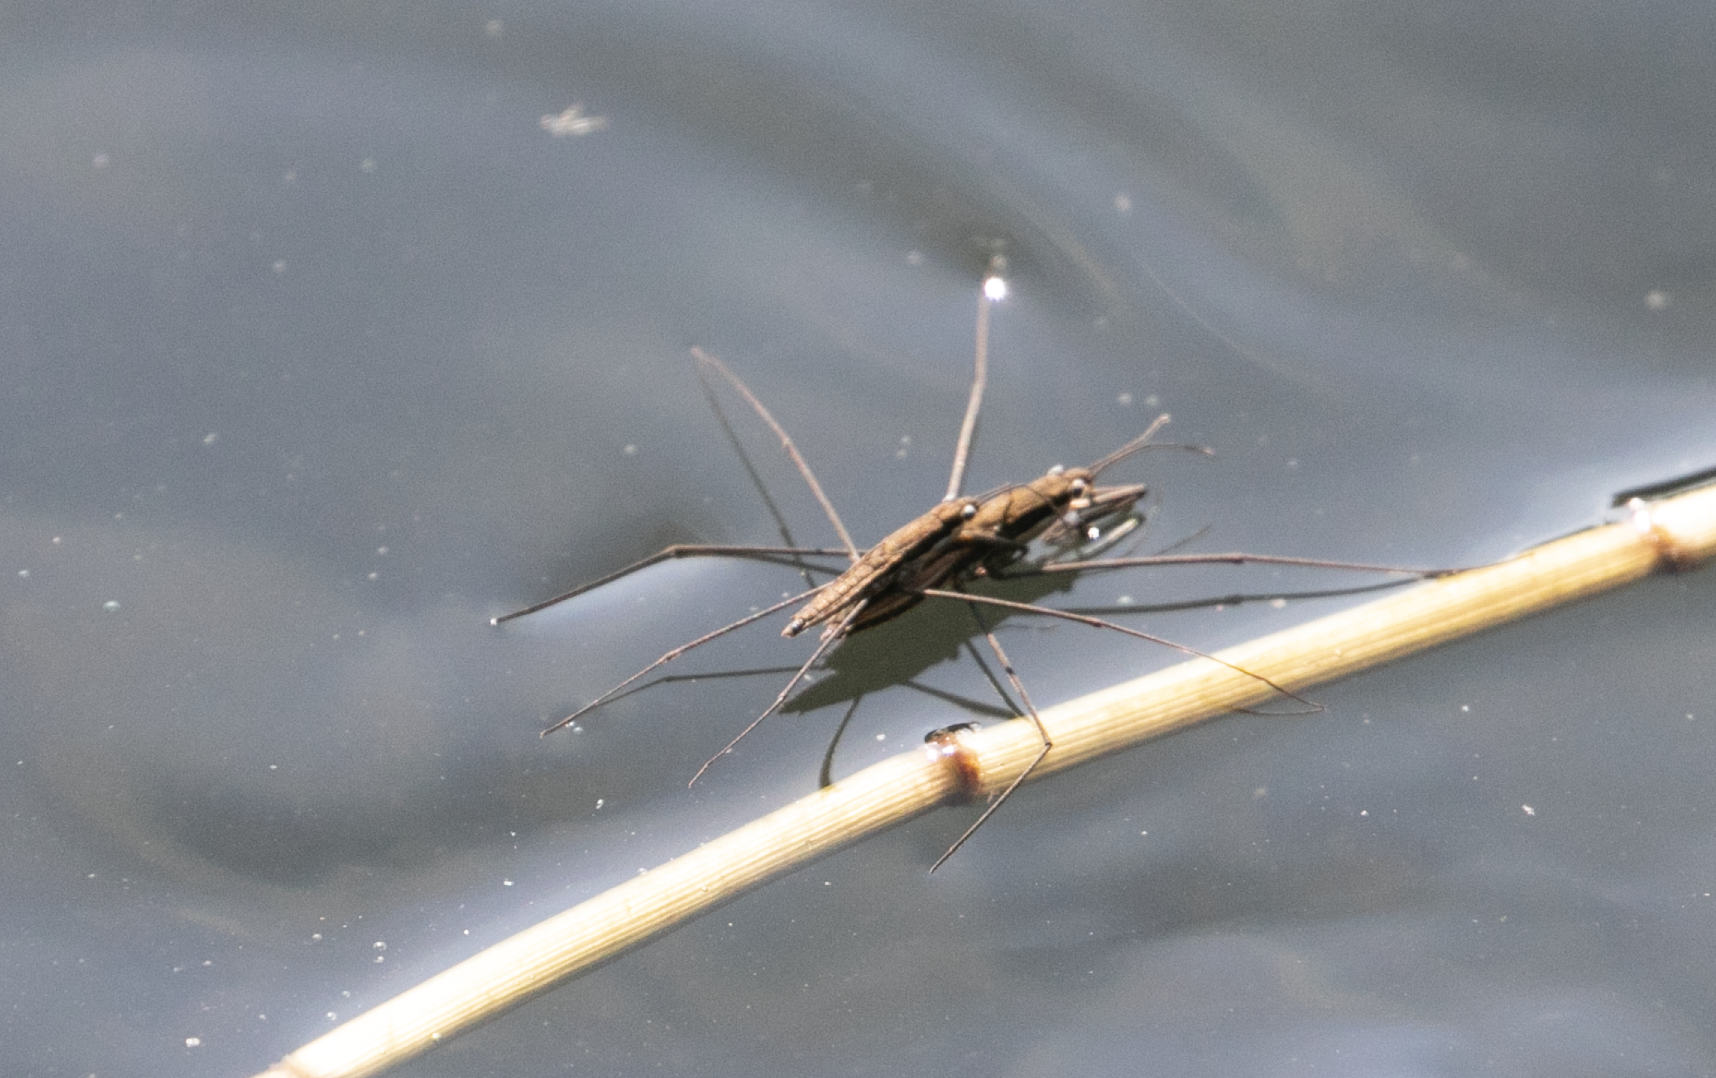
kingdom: Animalia
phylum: Arthropoda
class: Insecta
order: Hemiptera
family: Gerridae
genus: Aquarius
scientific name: Aquarius najas
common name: River skater
